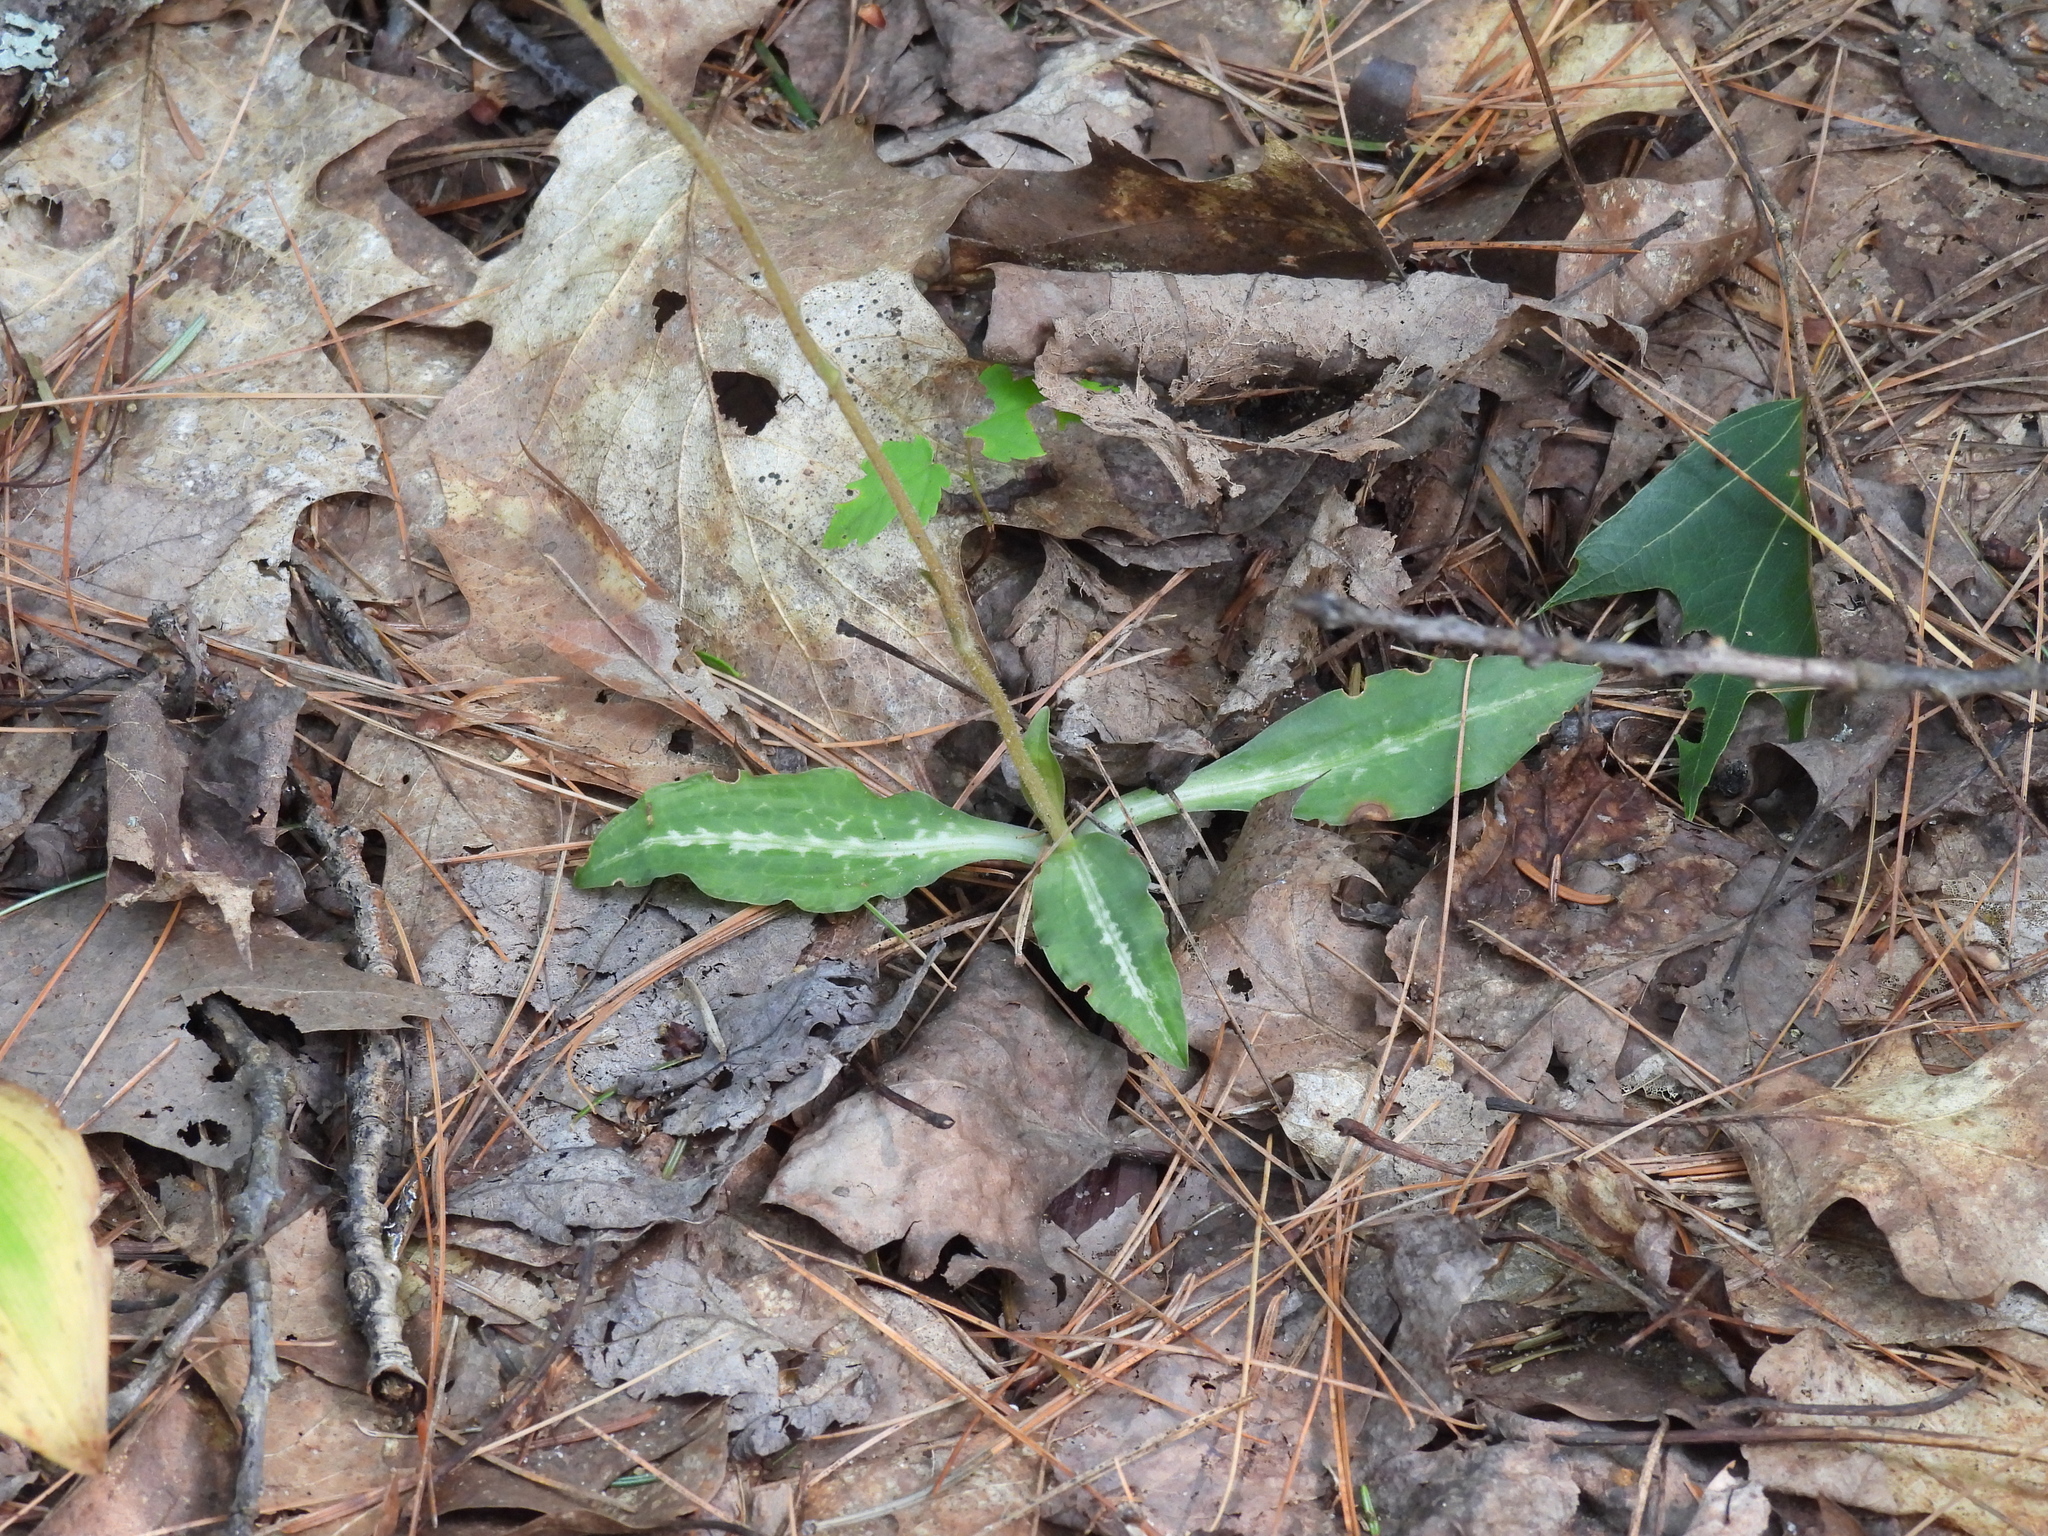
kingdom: Plantae
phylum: Tracheophyta
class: Liliopsida
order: Asparagales
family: Orchidaceae
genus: Goodyera
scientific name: Goodyera oblongifolia
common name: Giant rattlesnake-plantain
